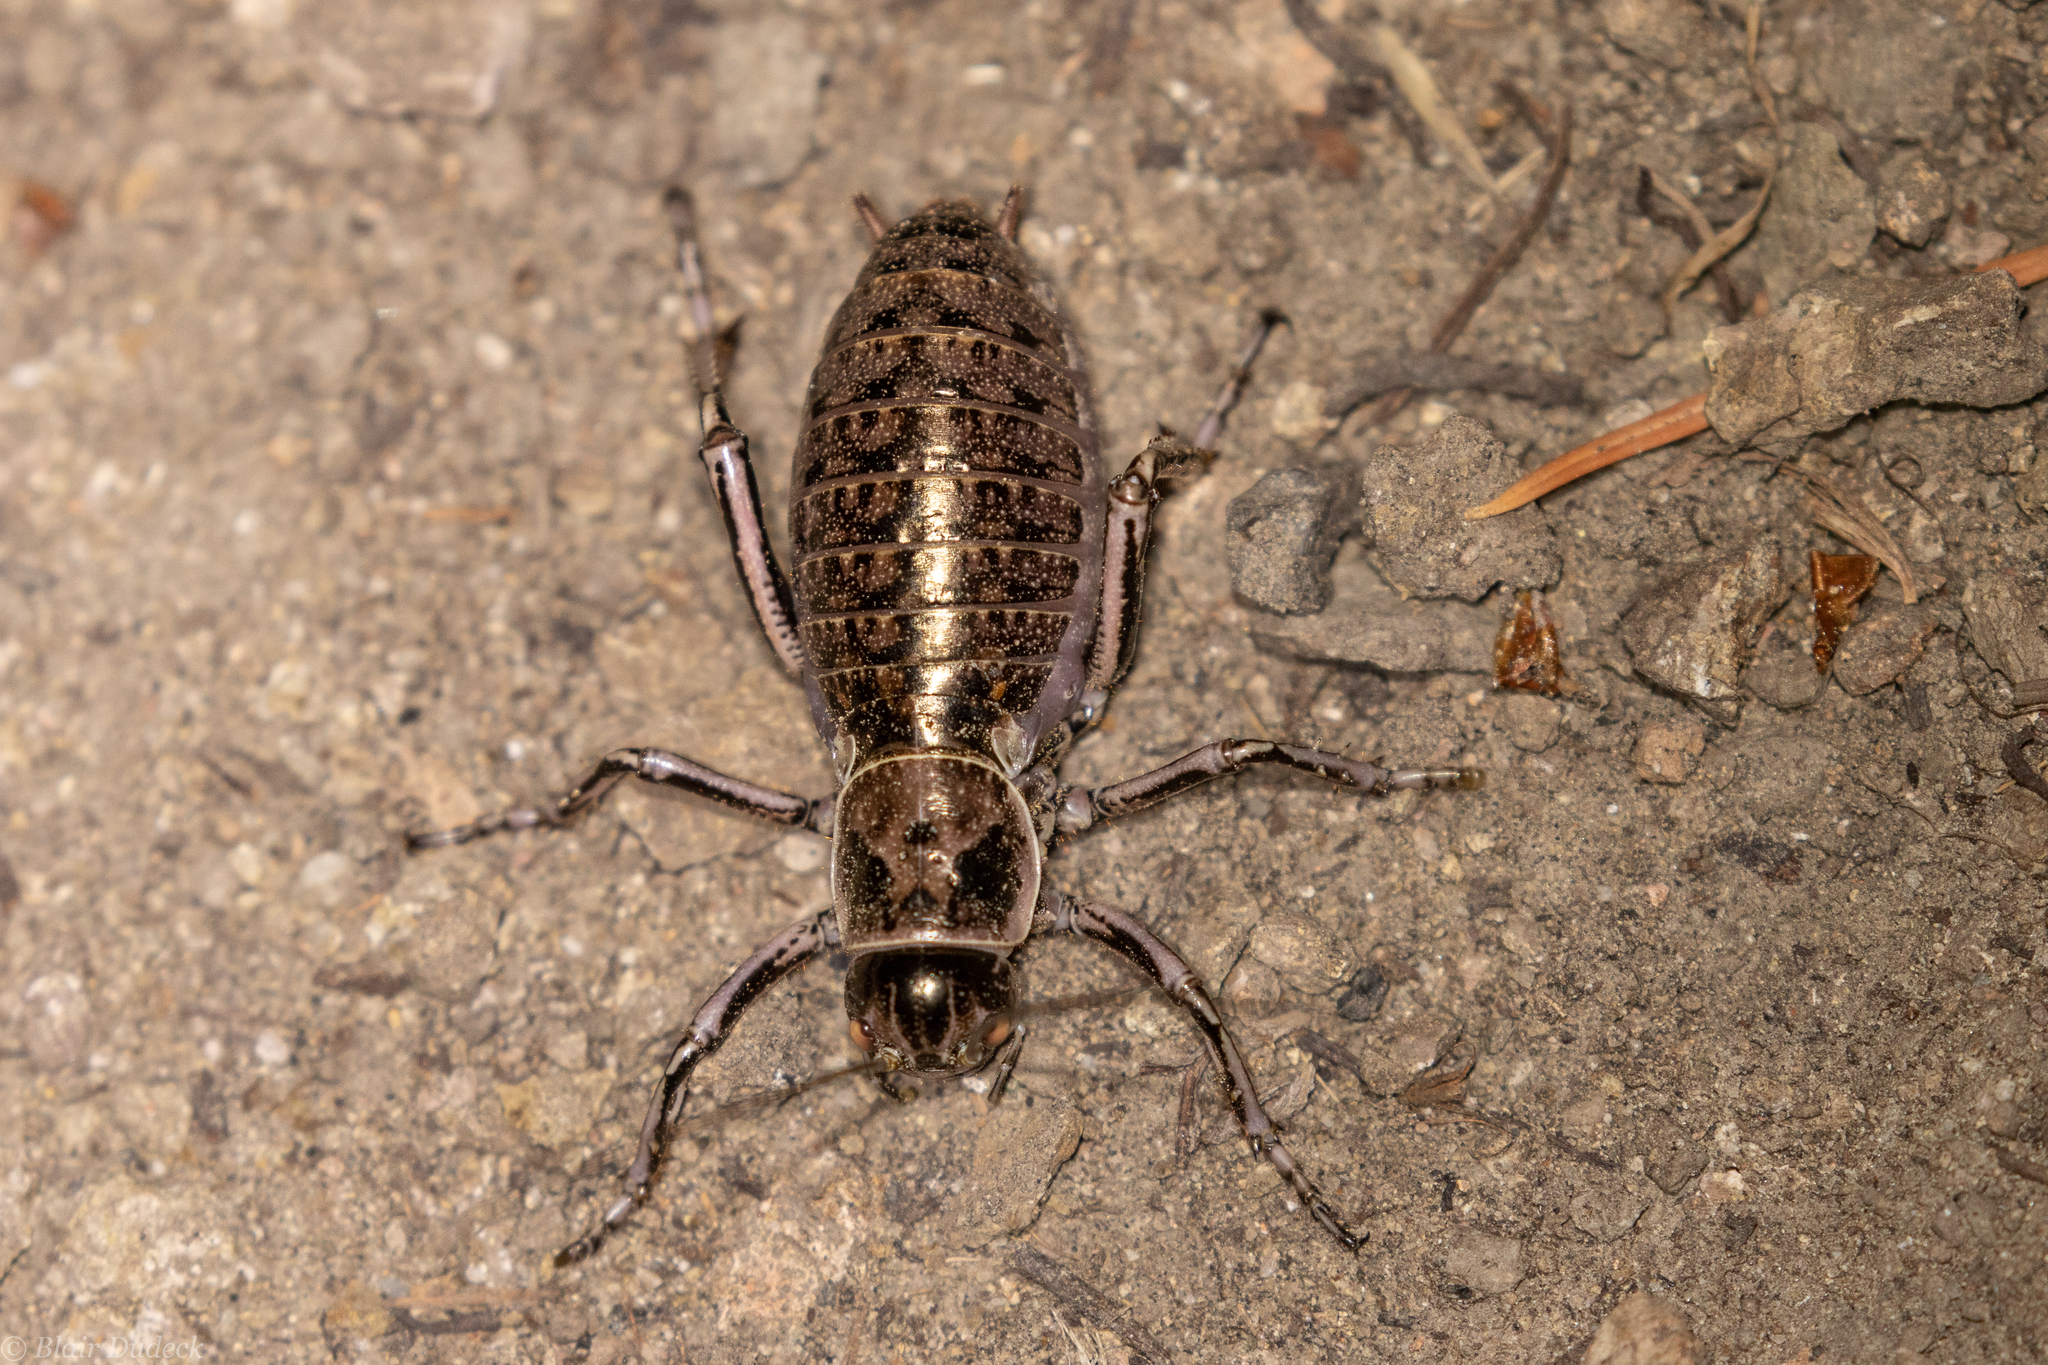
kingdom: Animalia
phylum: Arthropoda
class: Insecta
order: Orthoptera
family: Prophalangopsidae
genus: Cyphoderris
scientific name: Cyphoderris monstrosa
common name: Great grig
